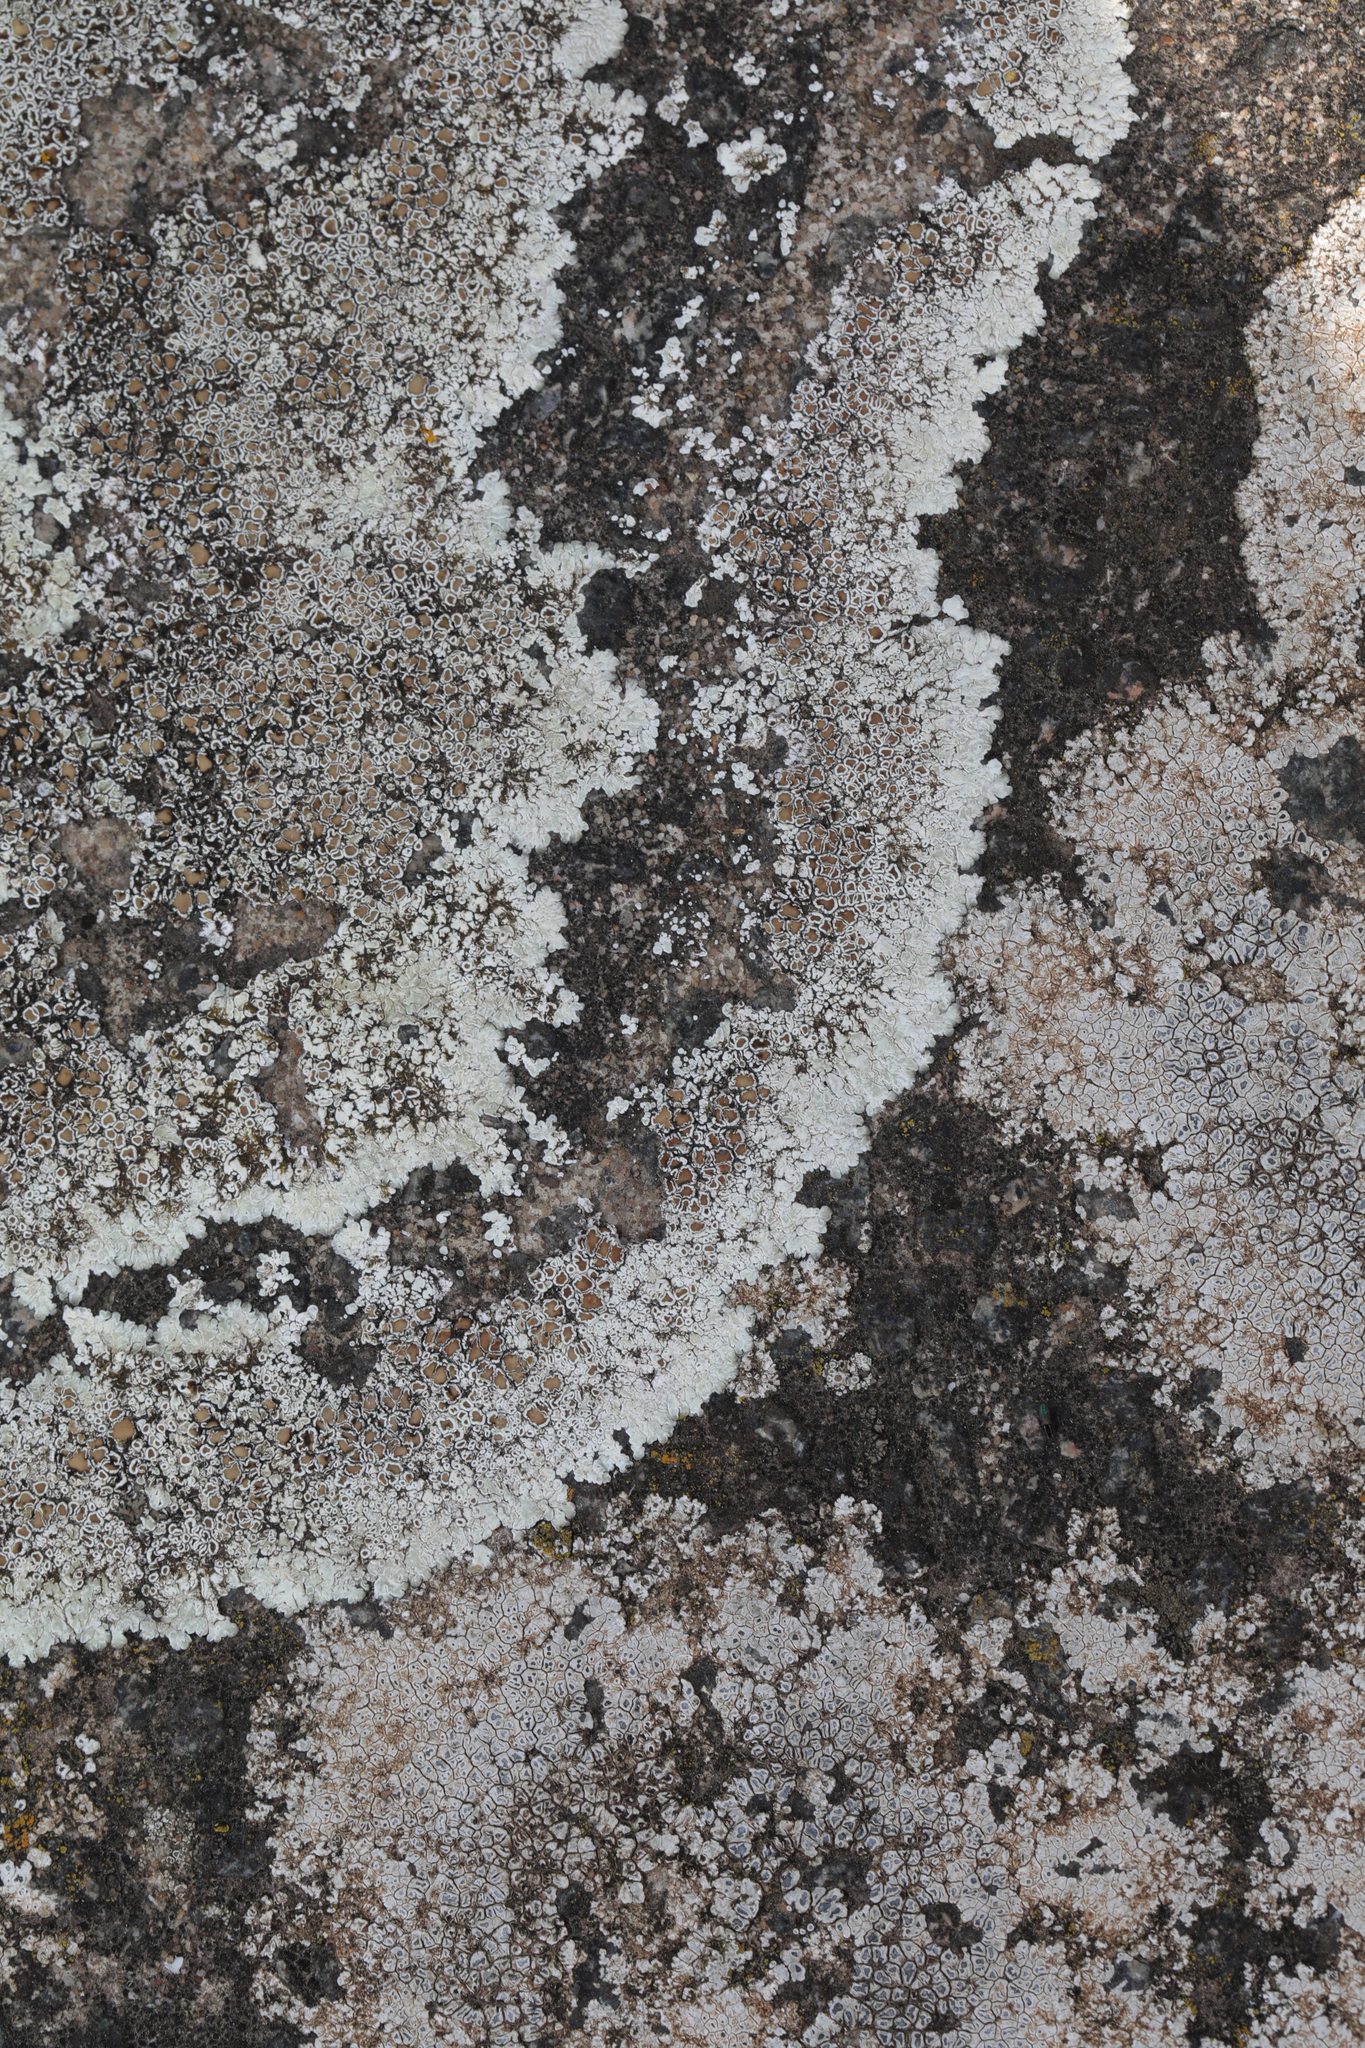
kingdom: Fungi
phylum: Ascomycota
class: Lecanoromycetes
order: Lecanorales
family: Lecanoraceae
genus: Protoparmeliopsis
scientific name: Protoparmeliopsis muralis
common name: Stonewall rim lichen
